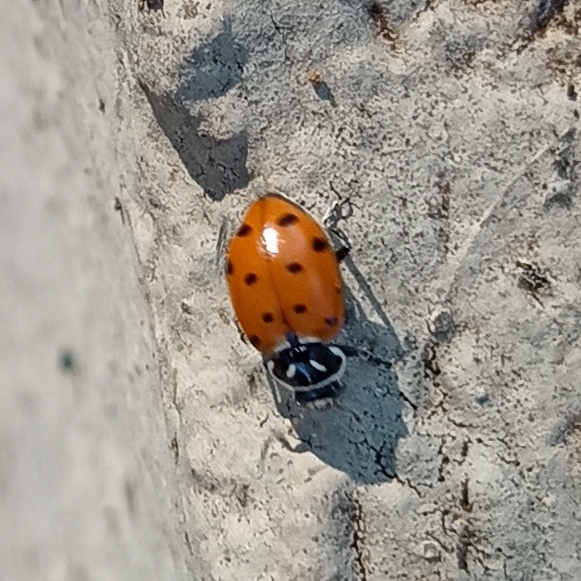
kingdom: Animalia
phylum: Arthropoda
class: Insecta
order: Coleoptera
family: Coccinellidae
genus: Hippodamia
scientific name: Hippodamia convergens
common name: Convergent lady beetle
